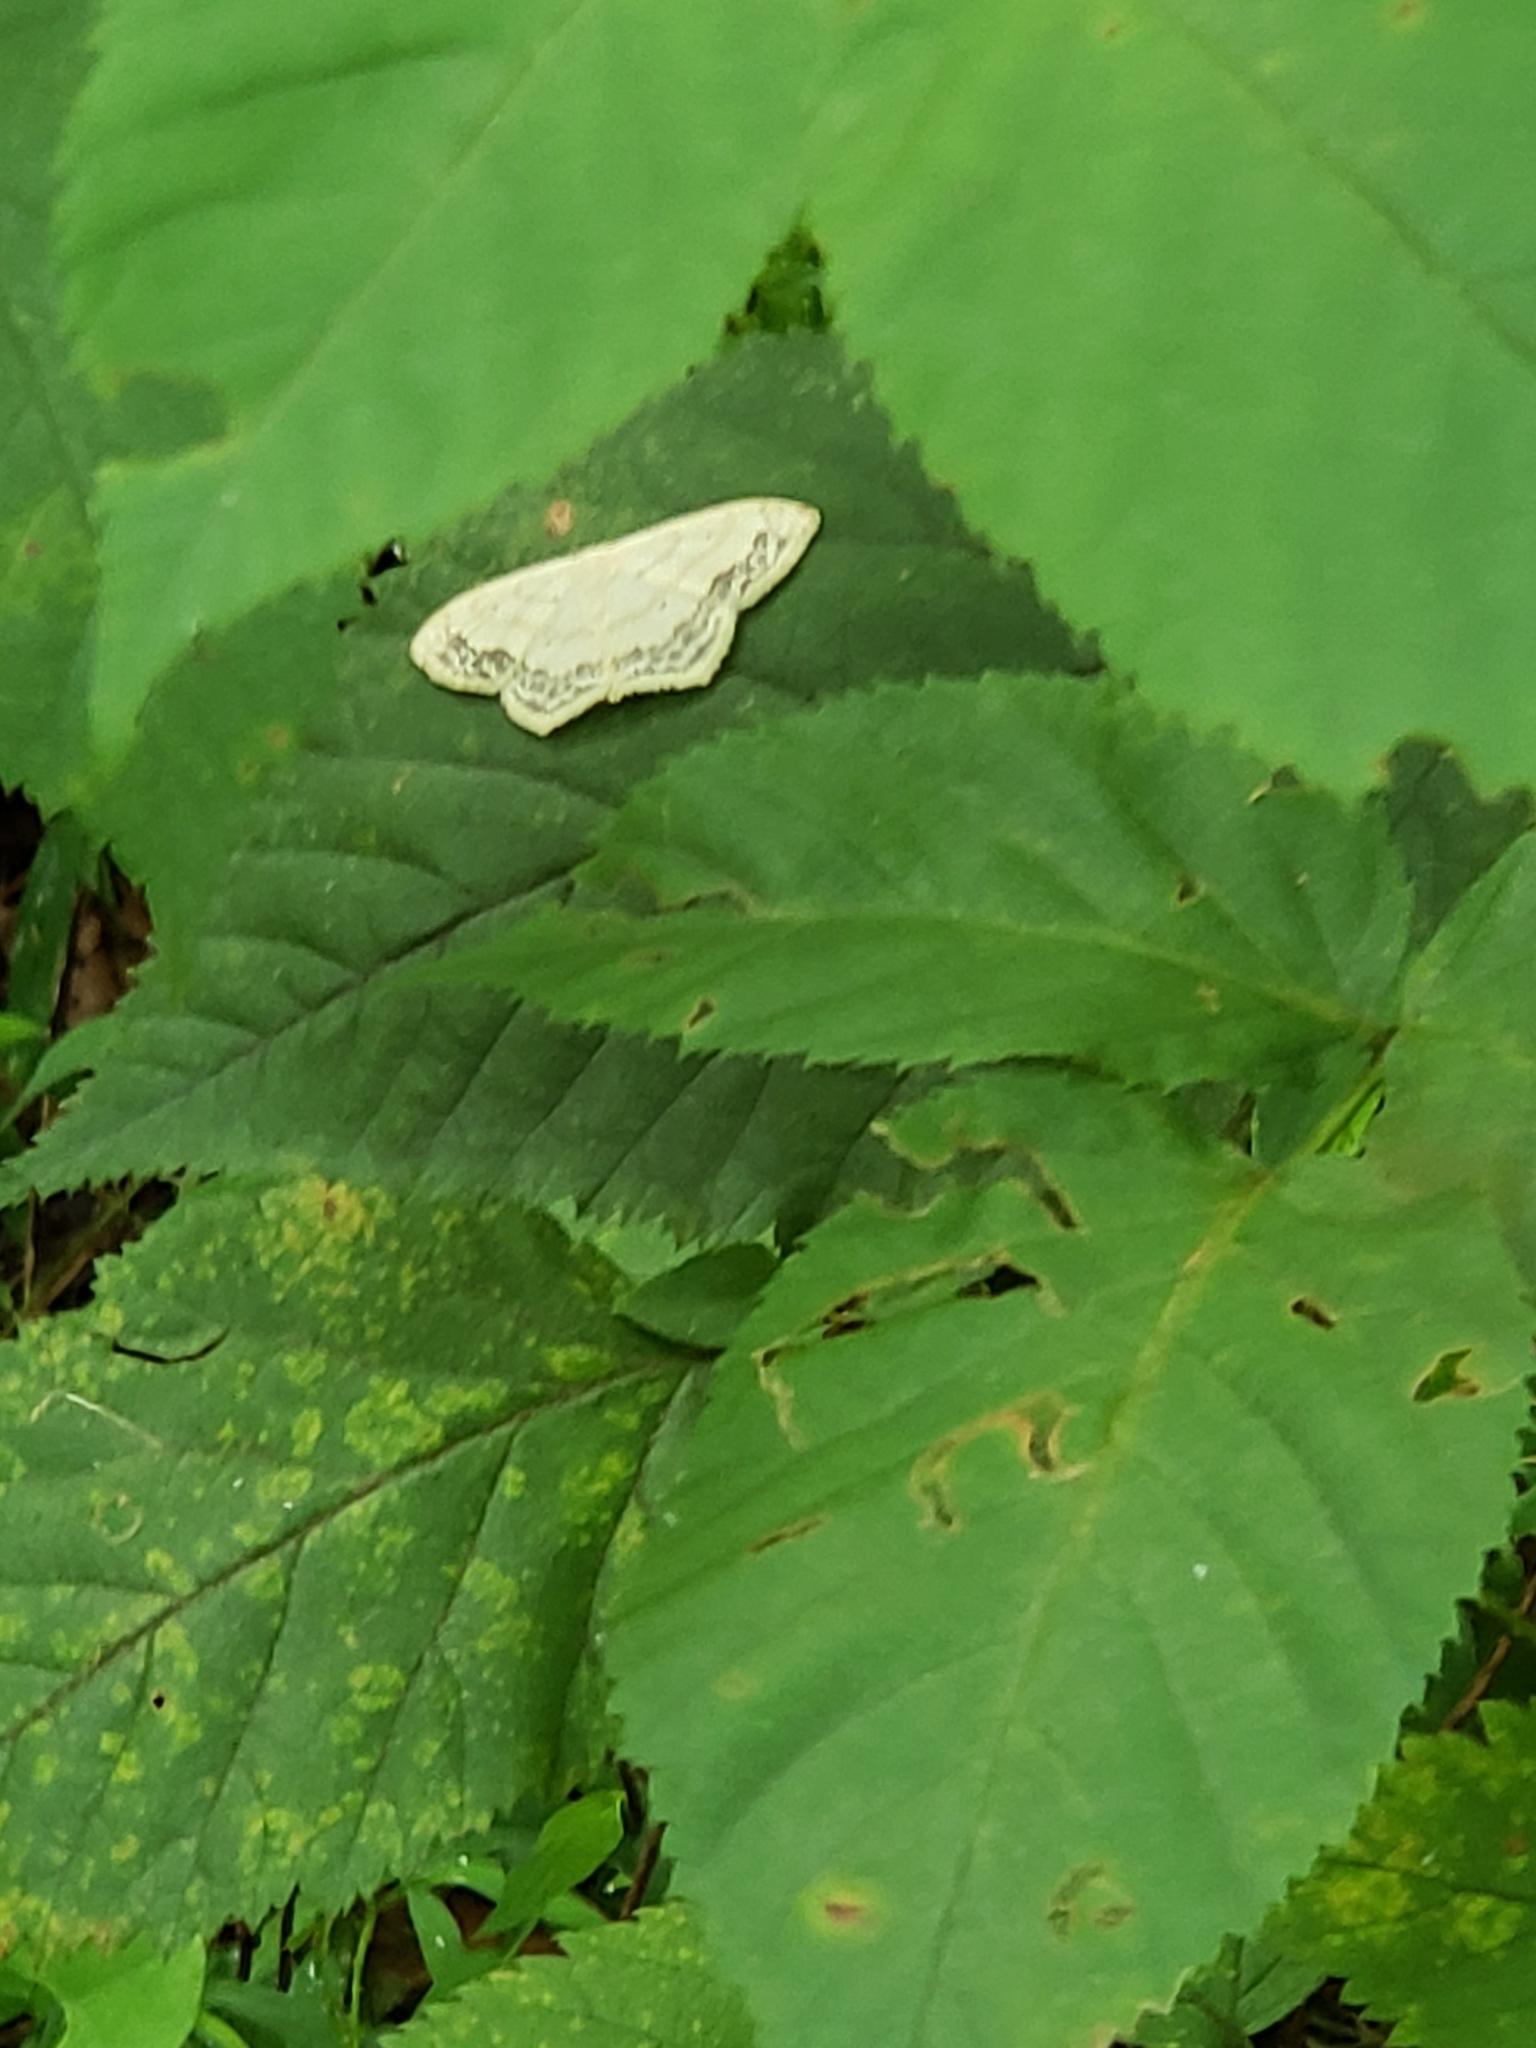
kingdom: Animalia
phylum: Arthropoda
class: Insecta
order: Lepidoptera
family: Geometridae
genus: Scopula
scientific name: Scopula limboundata
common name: Large lace border
